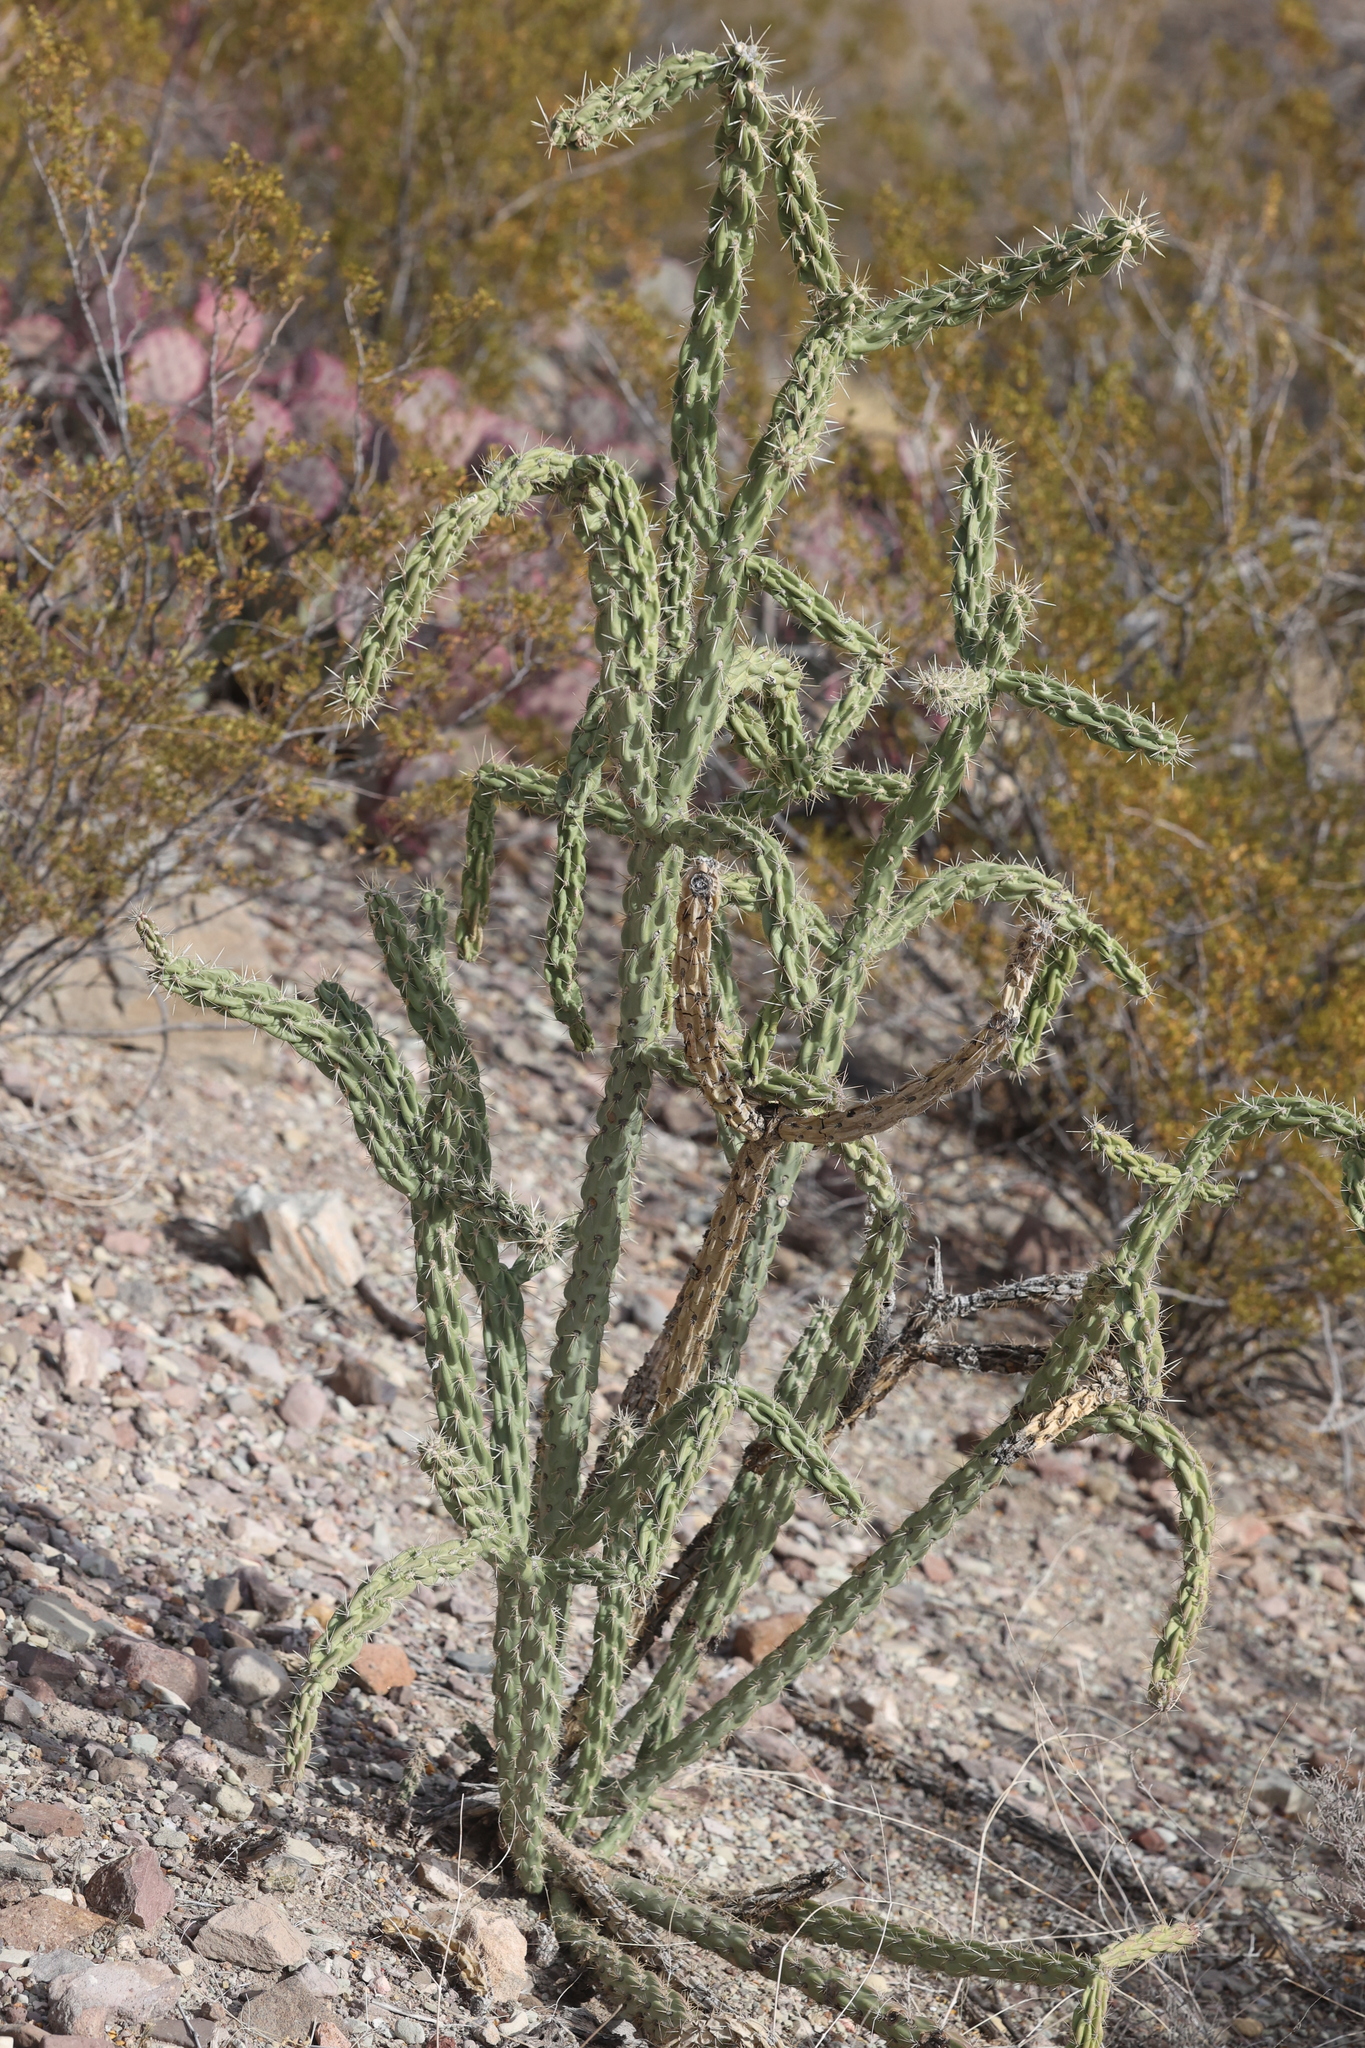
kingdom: Plantae
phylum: Tracheophyta
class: Magnoliopsida
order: Caryophyllales
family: Cactaceae
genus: Cylindropuntia
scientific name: Cylindropuntia imbricata
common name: Candelabrum cactus
